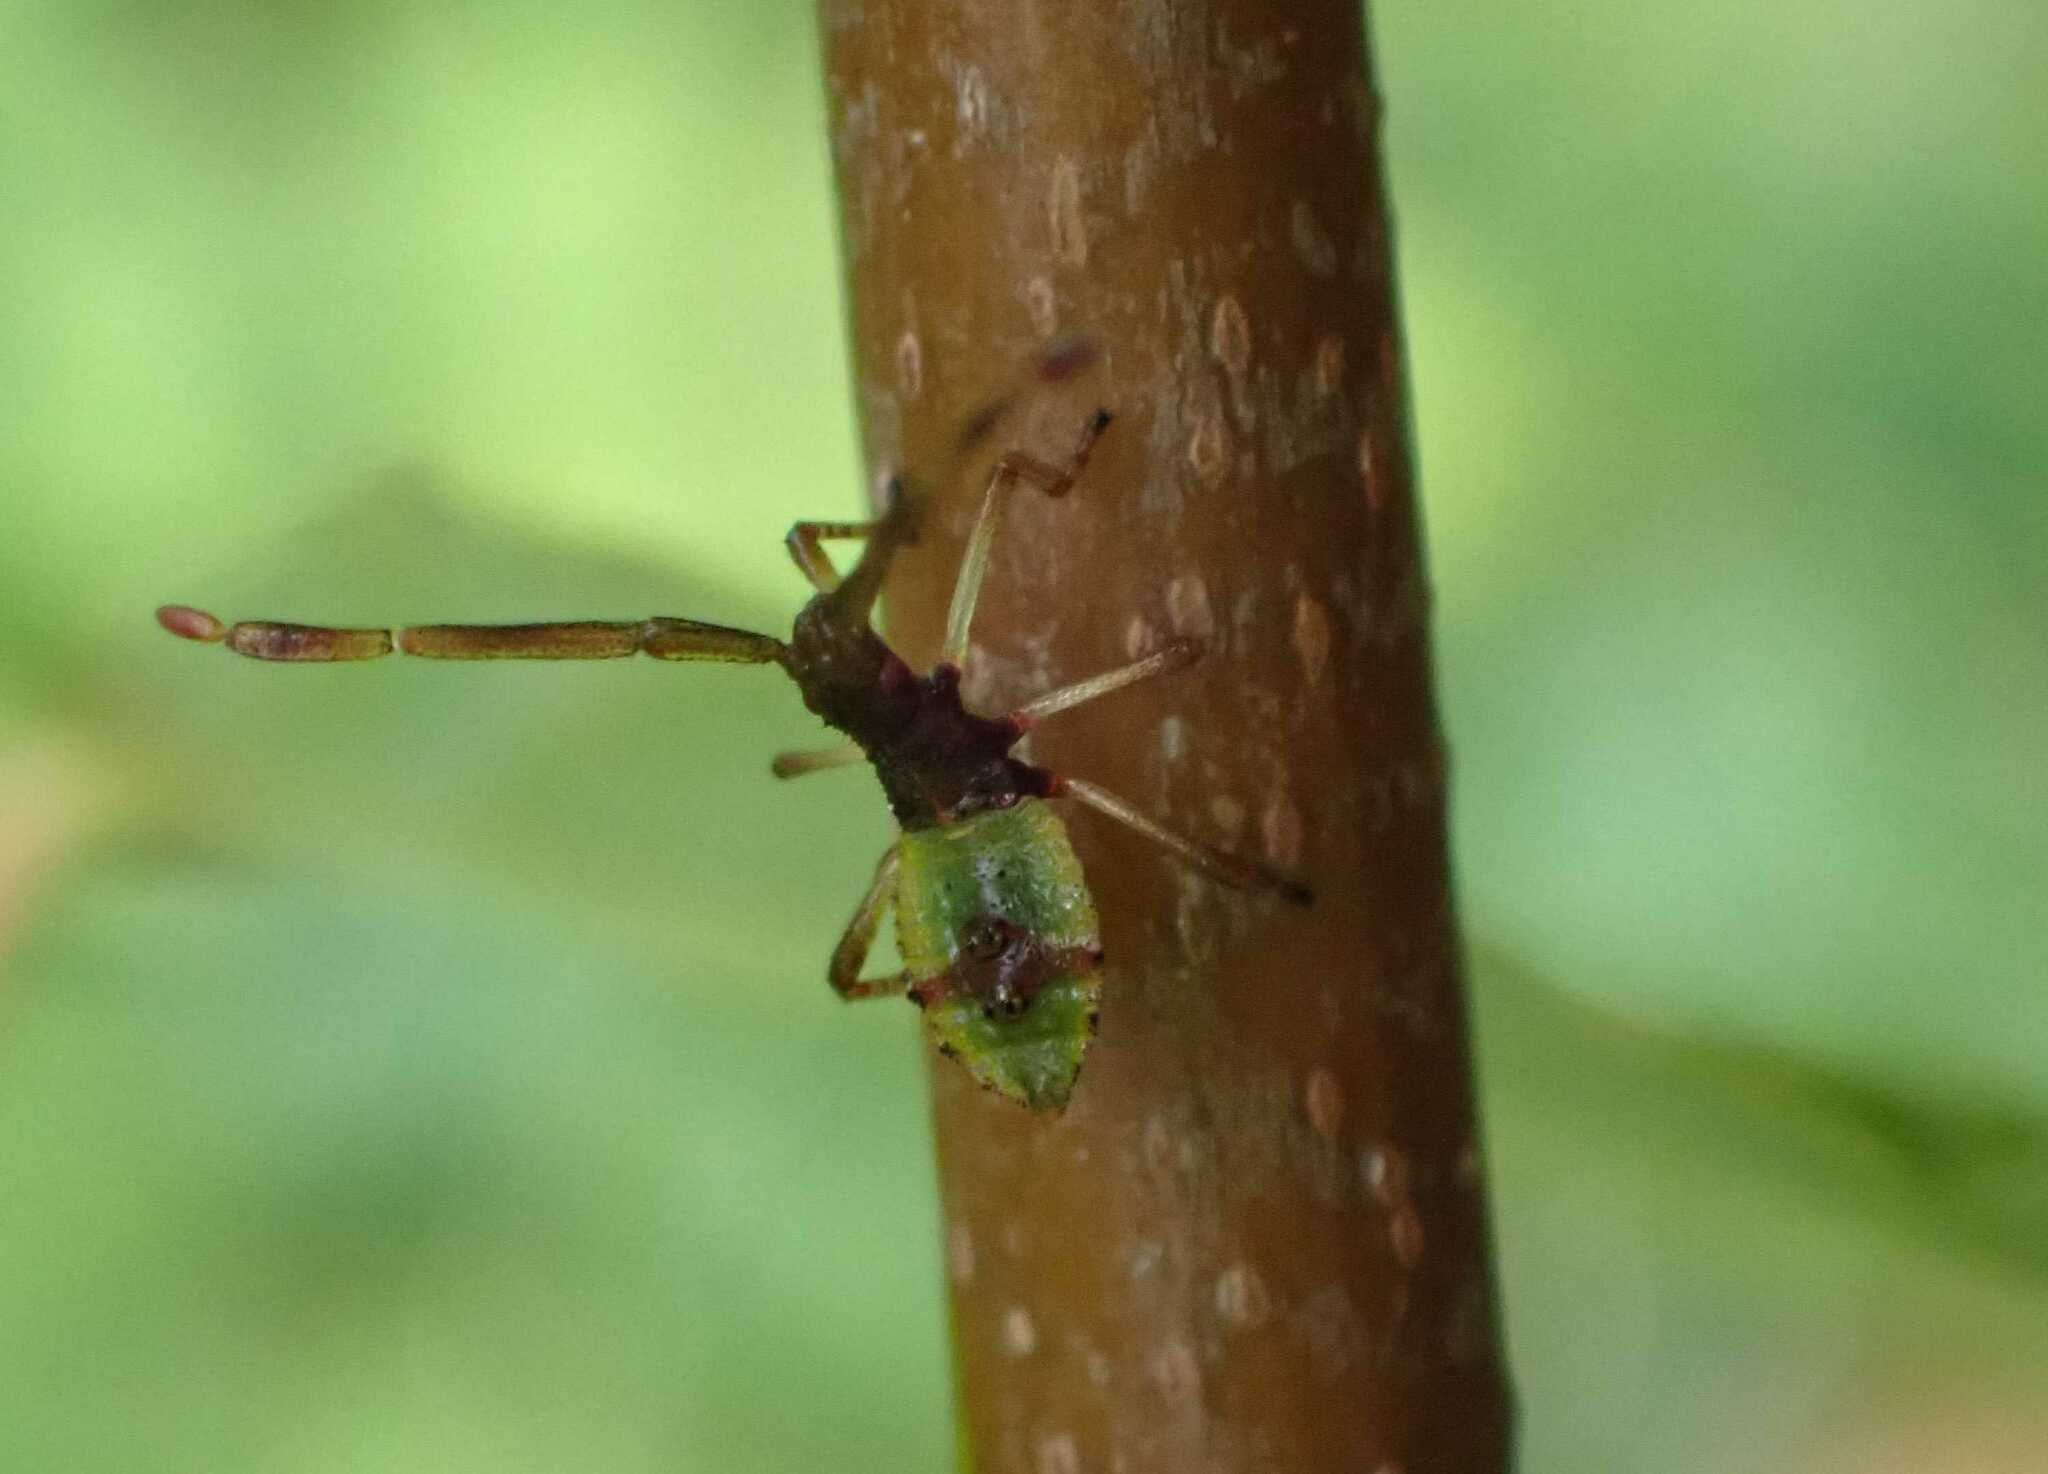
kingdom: Animalia
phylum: Arthropoda
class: Insecta
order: Hemiptera
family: Coreidae
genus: Gonocerus
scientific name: Gonocerus acuteangulatus
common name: Box bug
